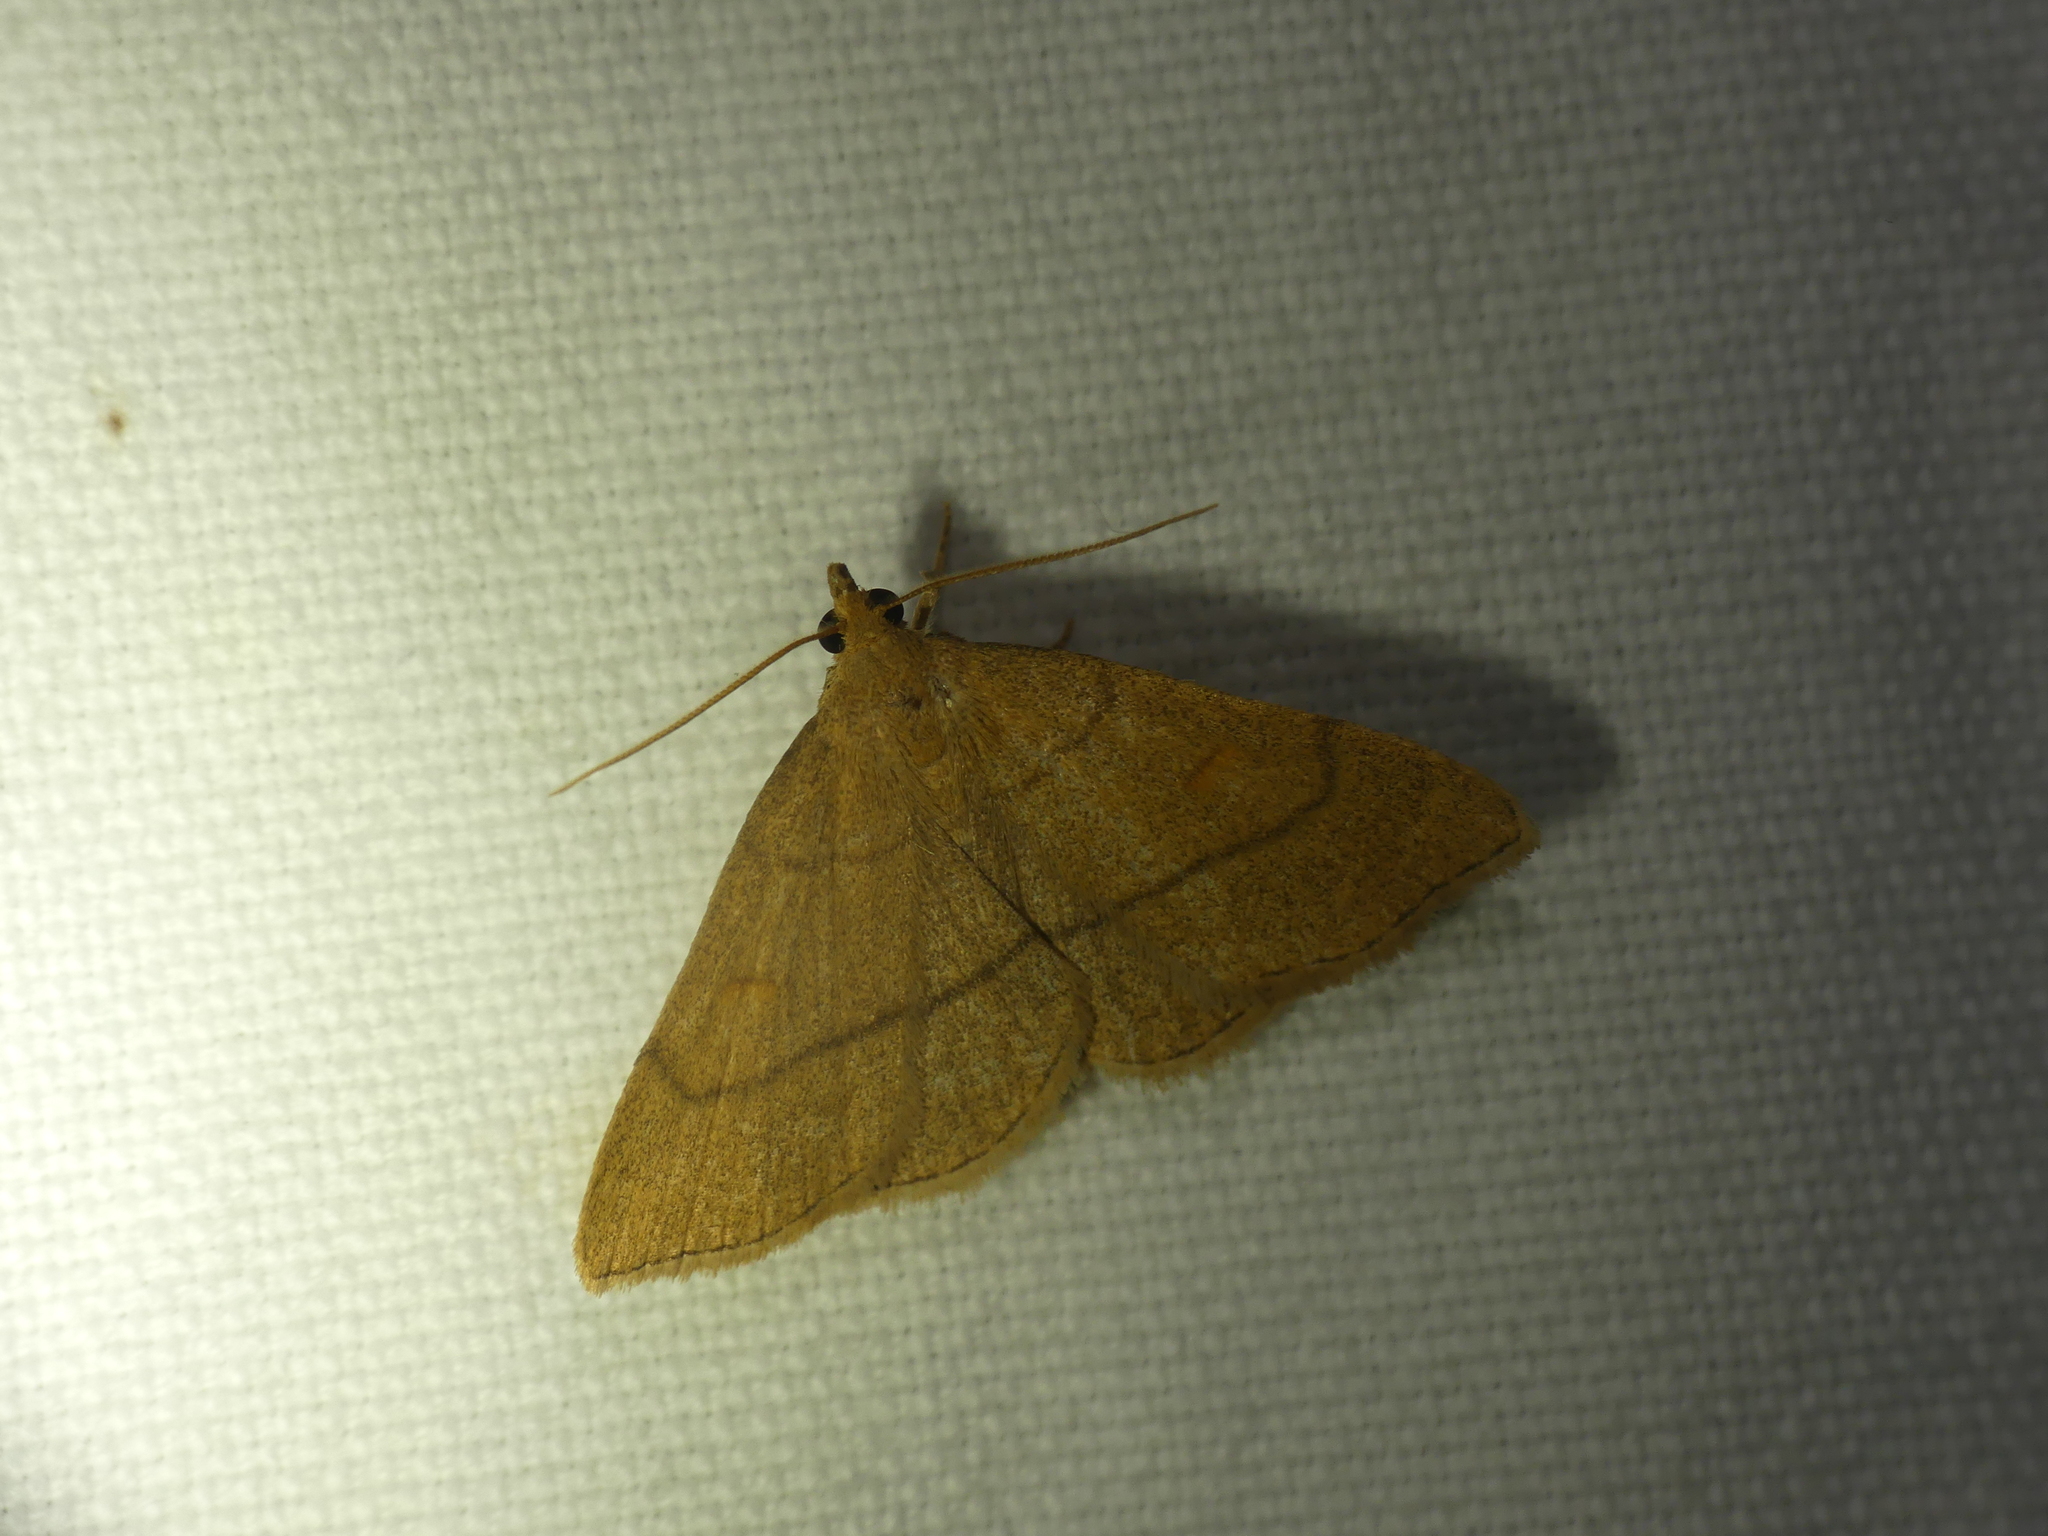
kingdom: Animalia
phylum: Arthropoda
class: Insecta
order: Lepidoptera
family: Erebidae
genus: Paracolax
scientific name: Paracolax tristalis
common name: Clay fan-foot
